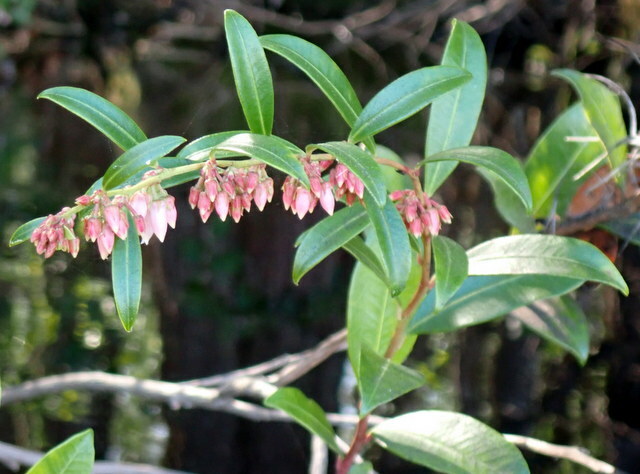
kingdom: Plantae
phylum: Tracheophyta
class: Magnoliopsida
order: Ericales
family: Ericaceae
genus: Lyonia
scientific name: Lyonia lucida
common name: Fetterbush
